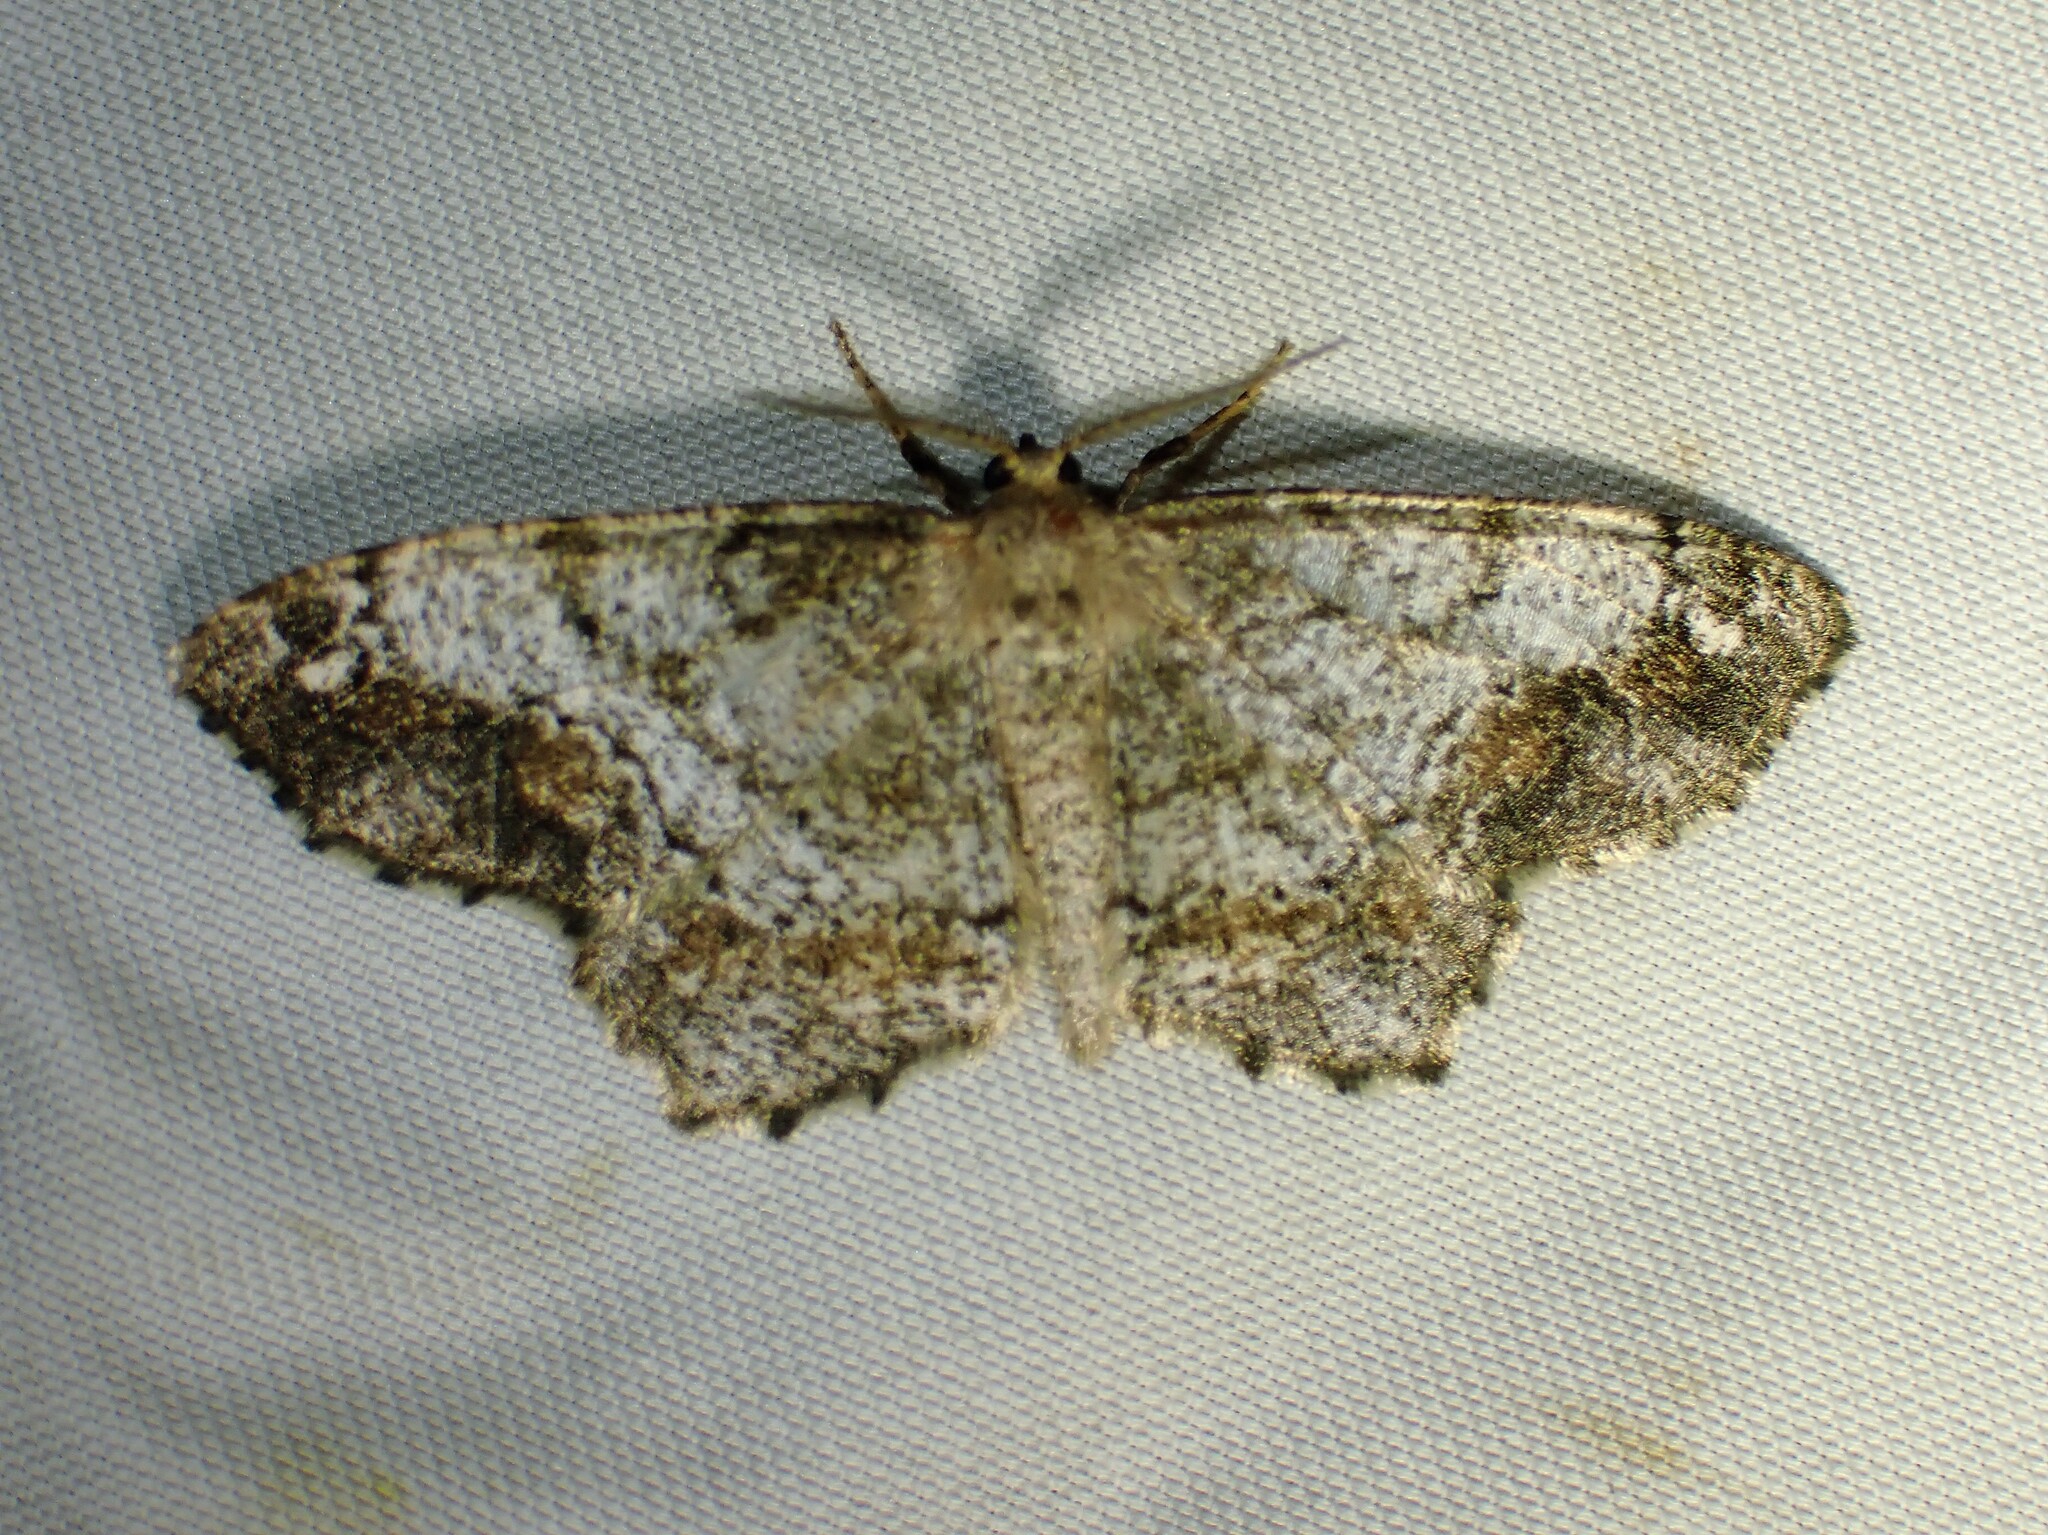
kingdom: Animalia
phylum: Arthropoda
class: Insecta
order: Lepidoptera
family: Geometridae
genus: Hypagyrtis
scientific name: Hypagyrtis unipunctata
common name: One-spotted variant
